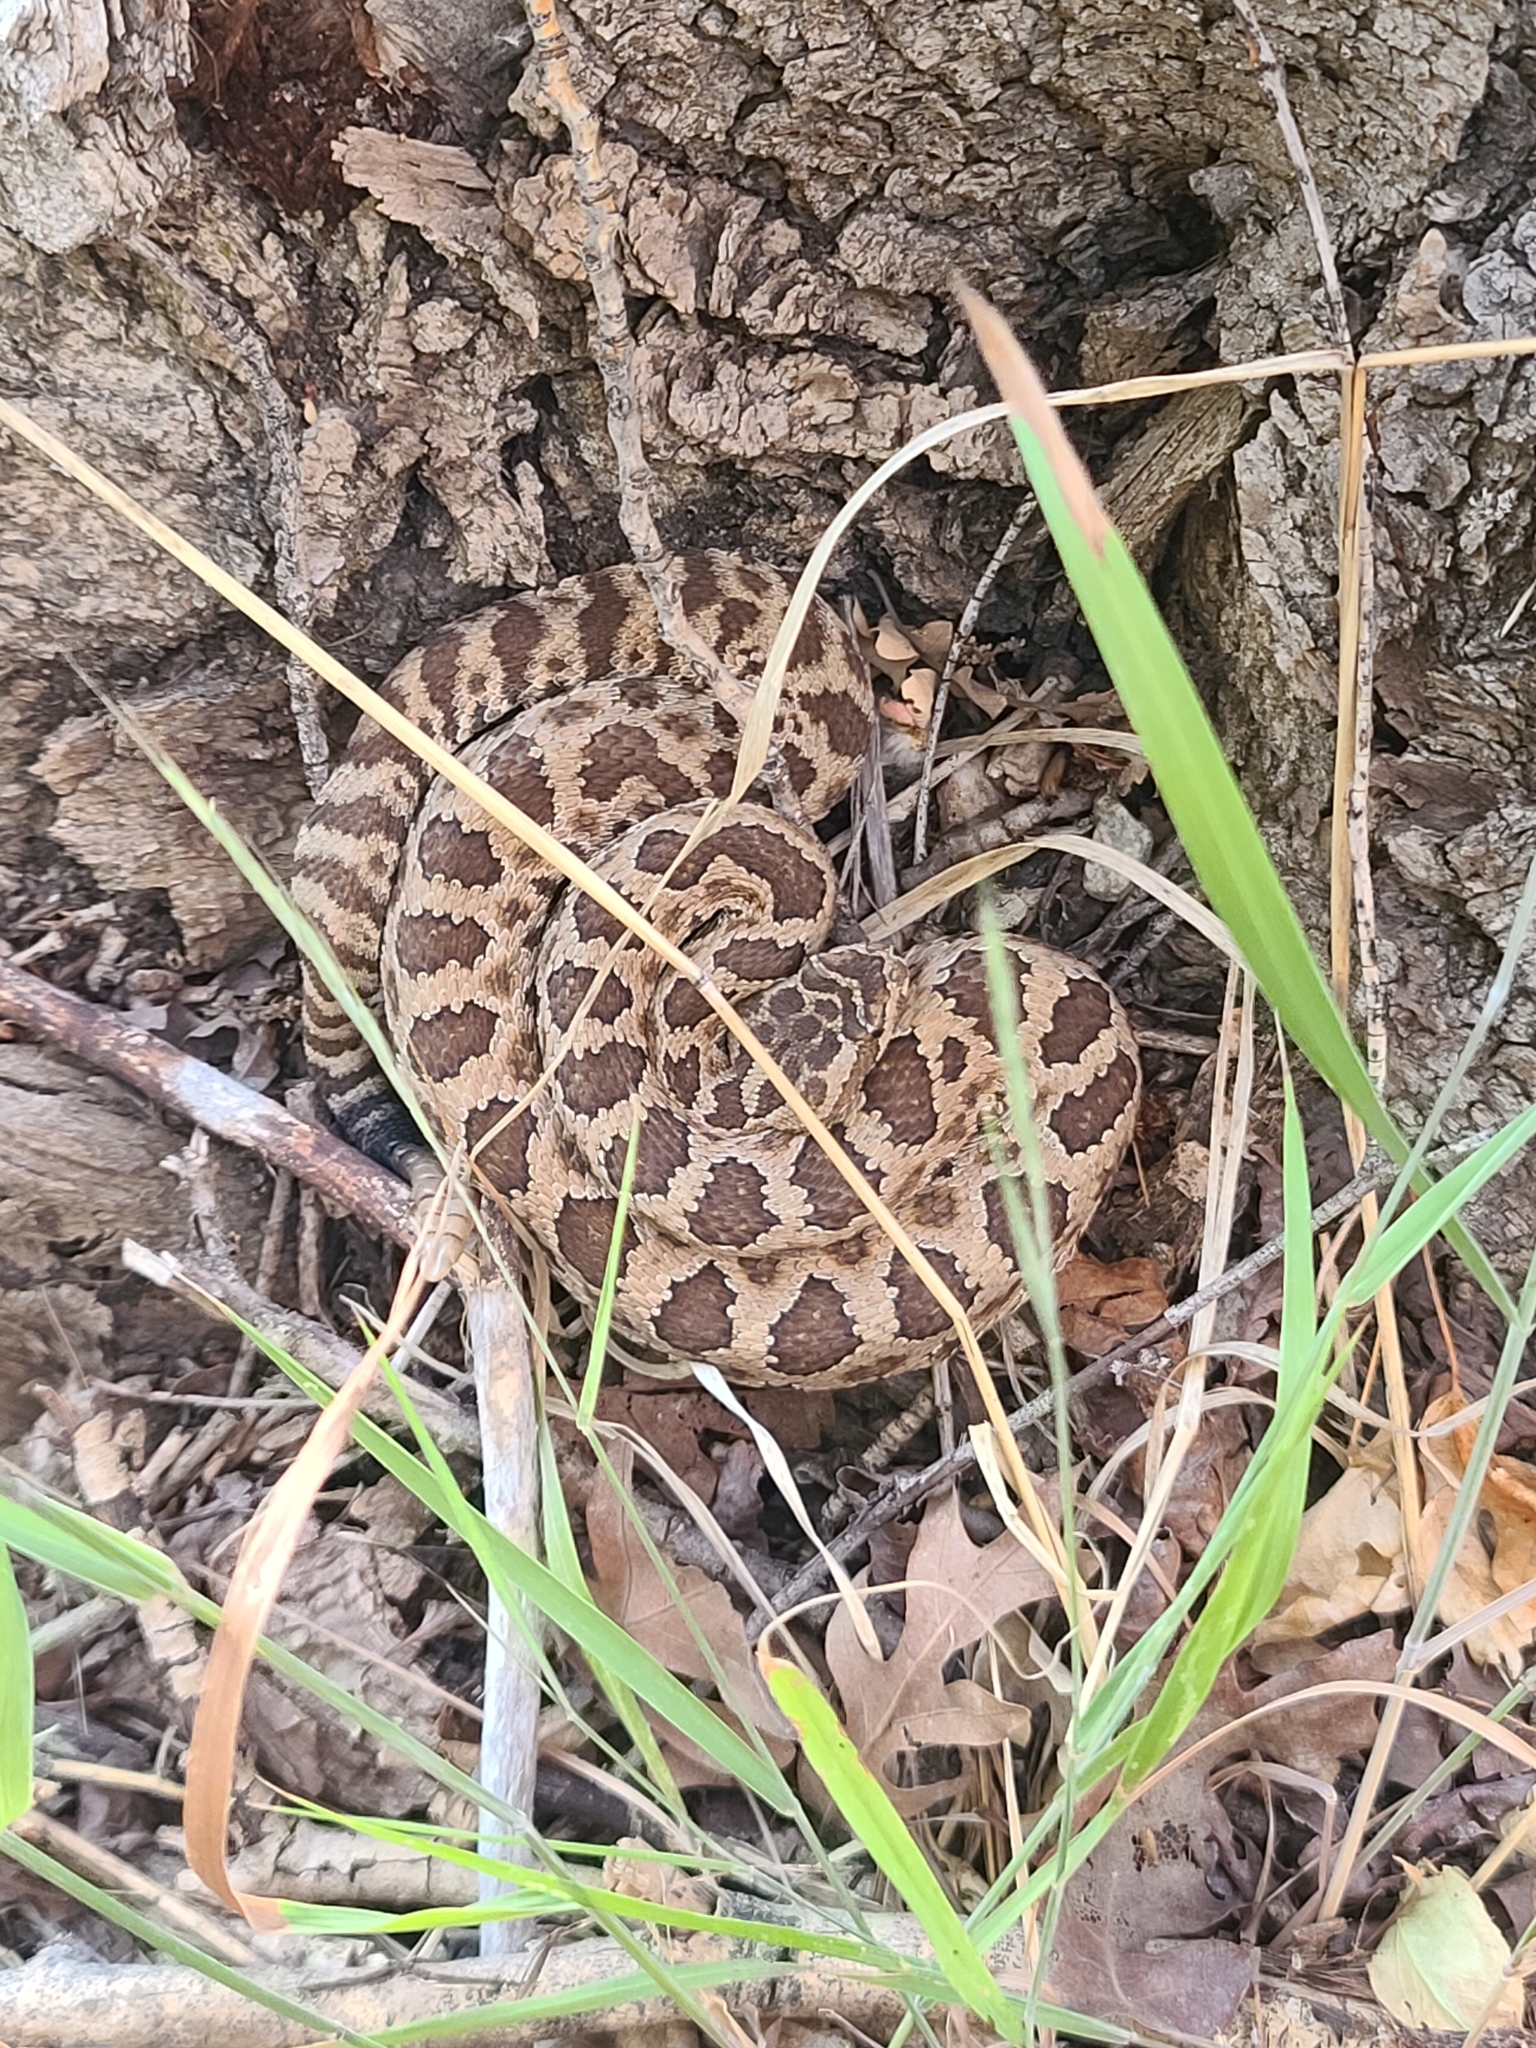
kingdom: Animalia
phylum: Chordata
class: Squamata
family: Viperidae
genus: Crotalus
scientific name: Crotalus oreganus
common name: Abyssus
